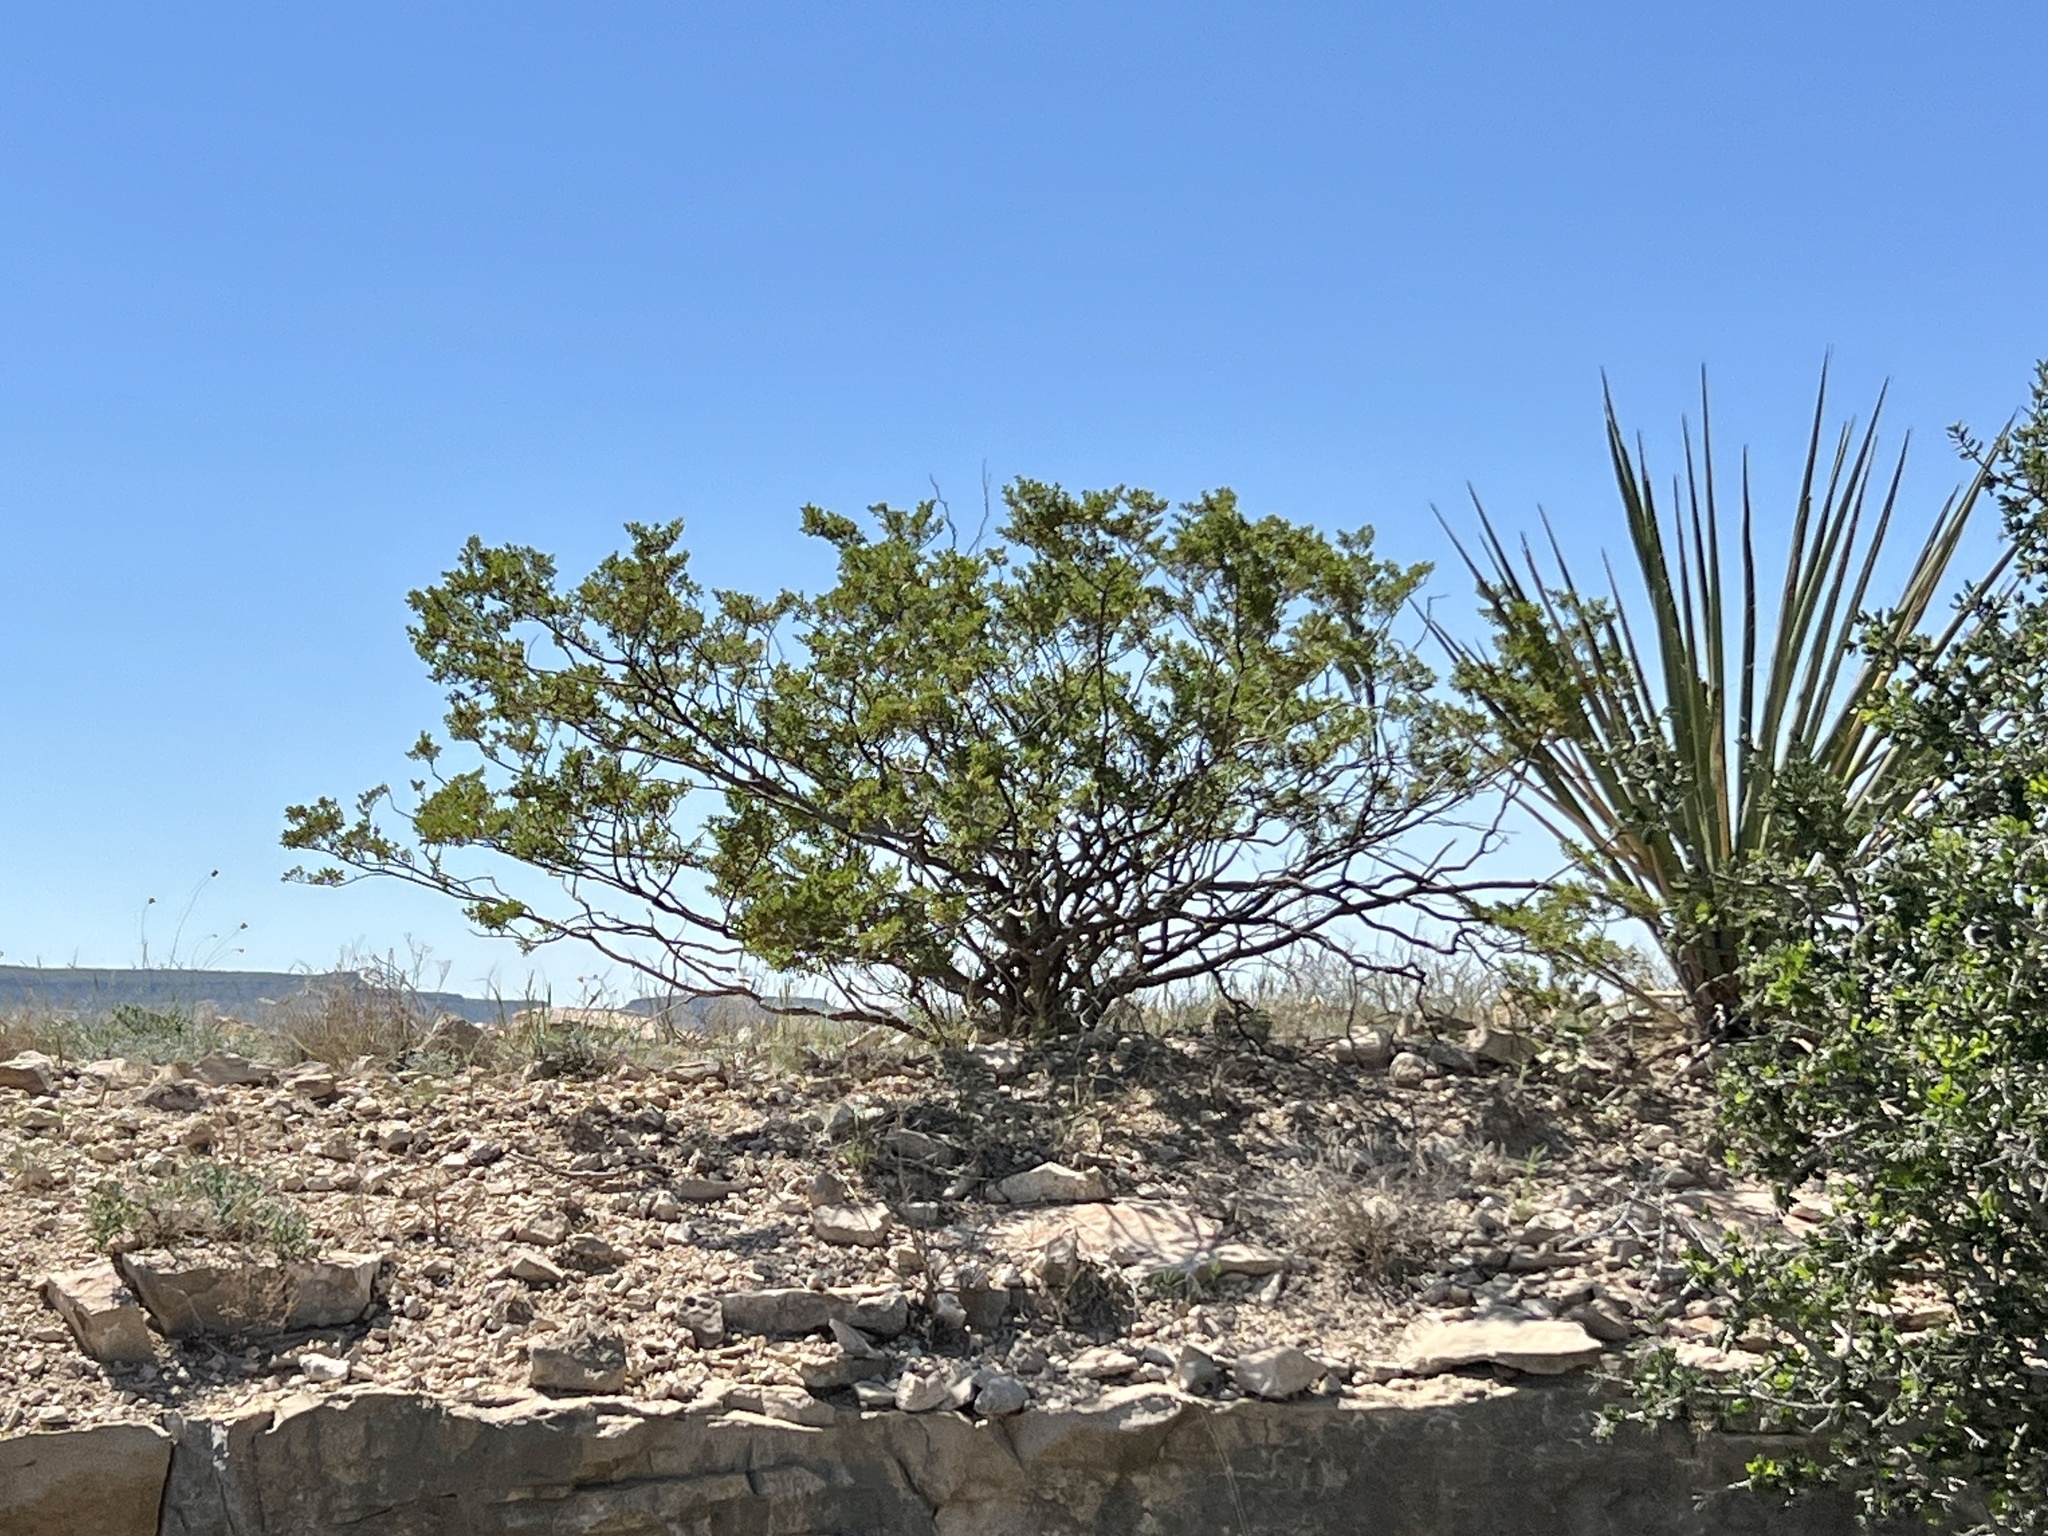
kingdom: Plantae
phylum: Tracheophyta
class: Magnoliopsida
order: Zygophyllales
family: Zygophyllaceae
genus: Larrea
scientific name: Larrea tridentata
